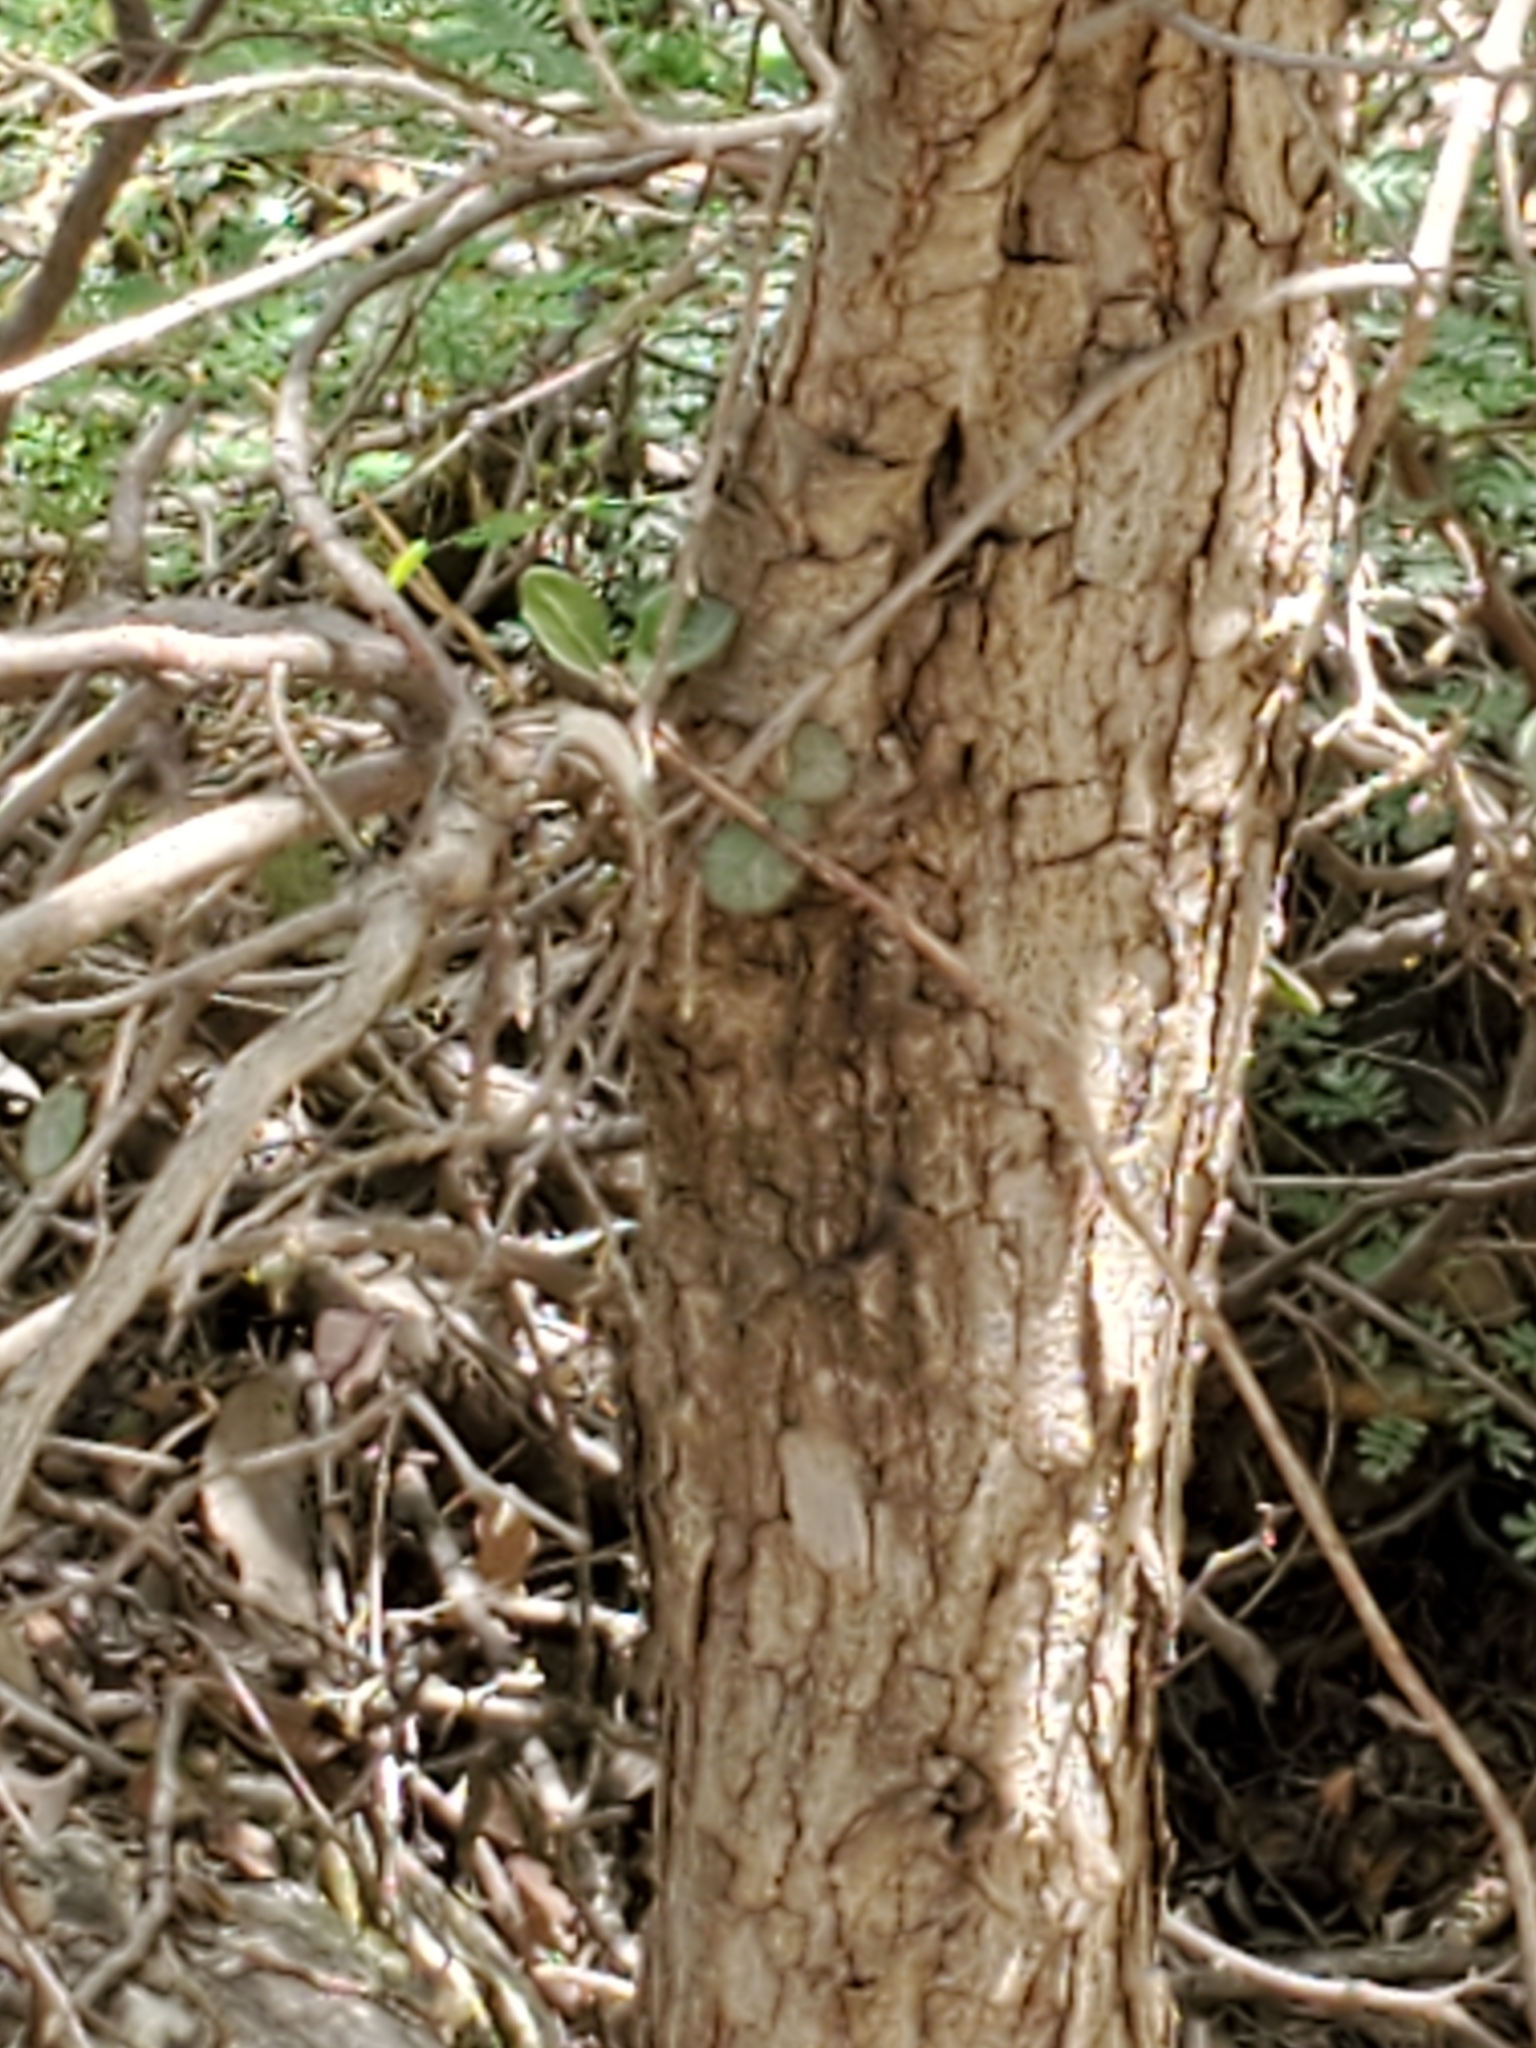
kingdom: Plantae
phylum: Tracheophyta
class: Magnoliopsida
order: Fagales
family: Fagaceae
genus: Quercus
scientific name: Quercus laceyi
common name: Lacey oak
